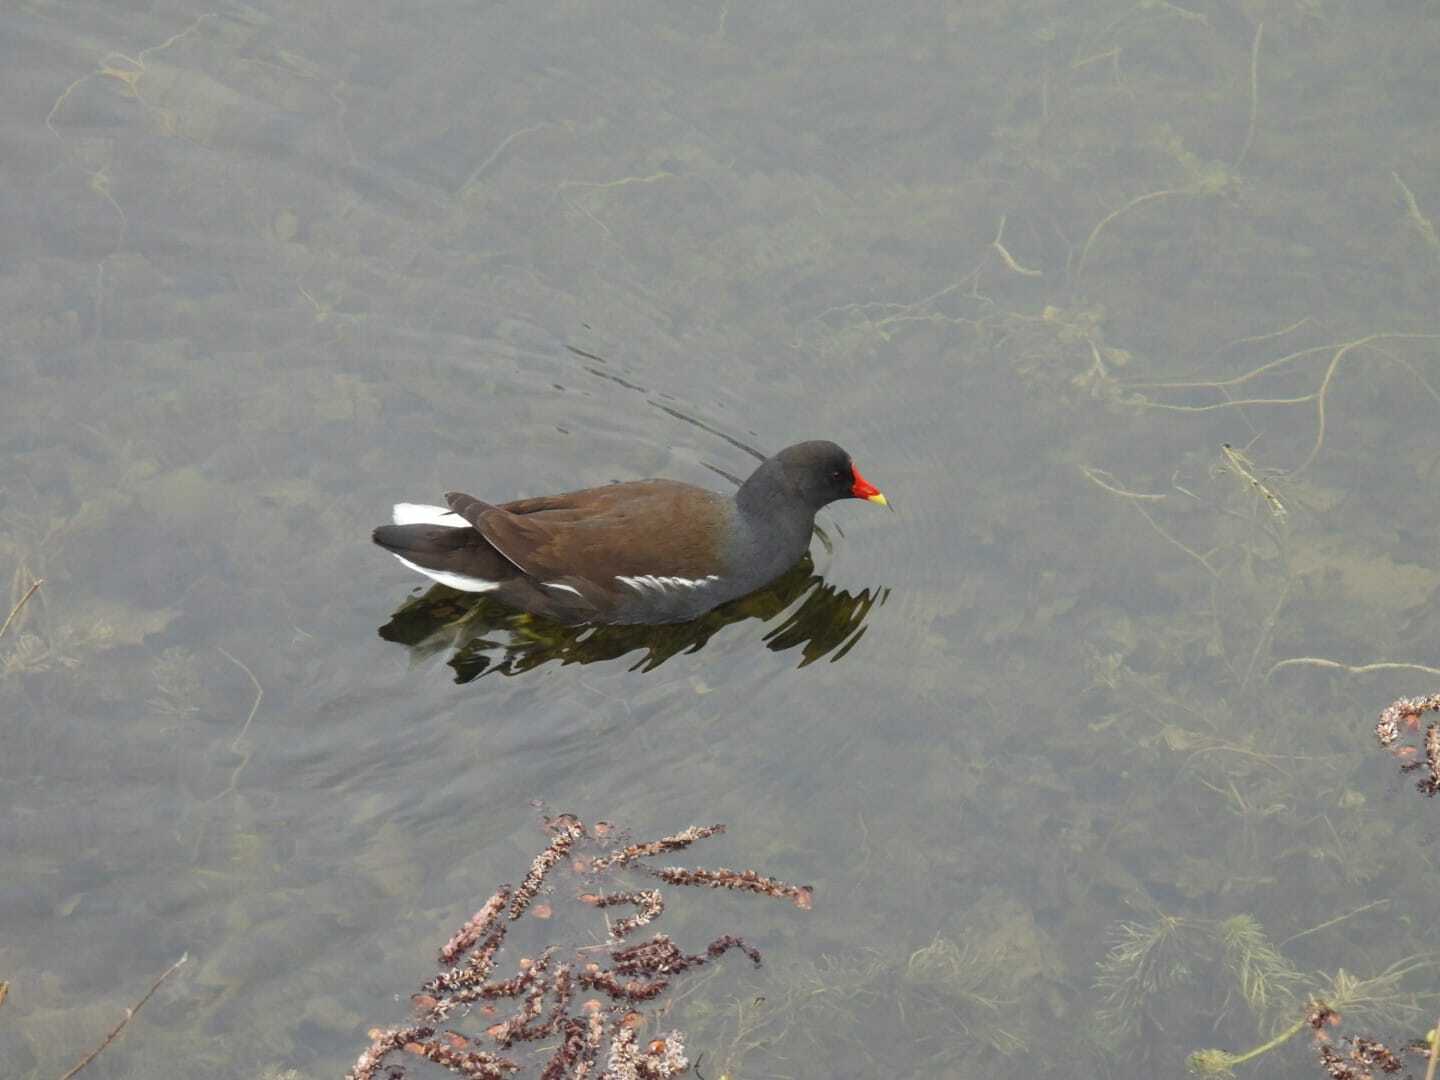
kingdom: Animalia
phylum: Chordata
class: Aves
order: Gruiformes
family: Rallidae
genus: Gallinula
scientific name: Gallinula chloropus
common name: Common moorhen
